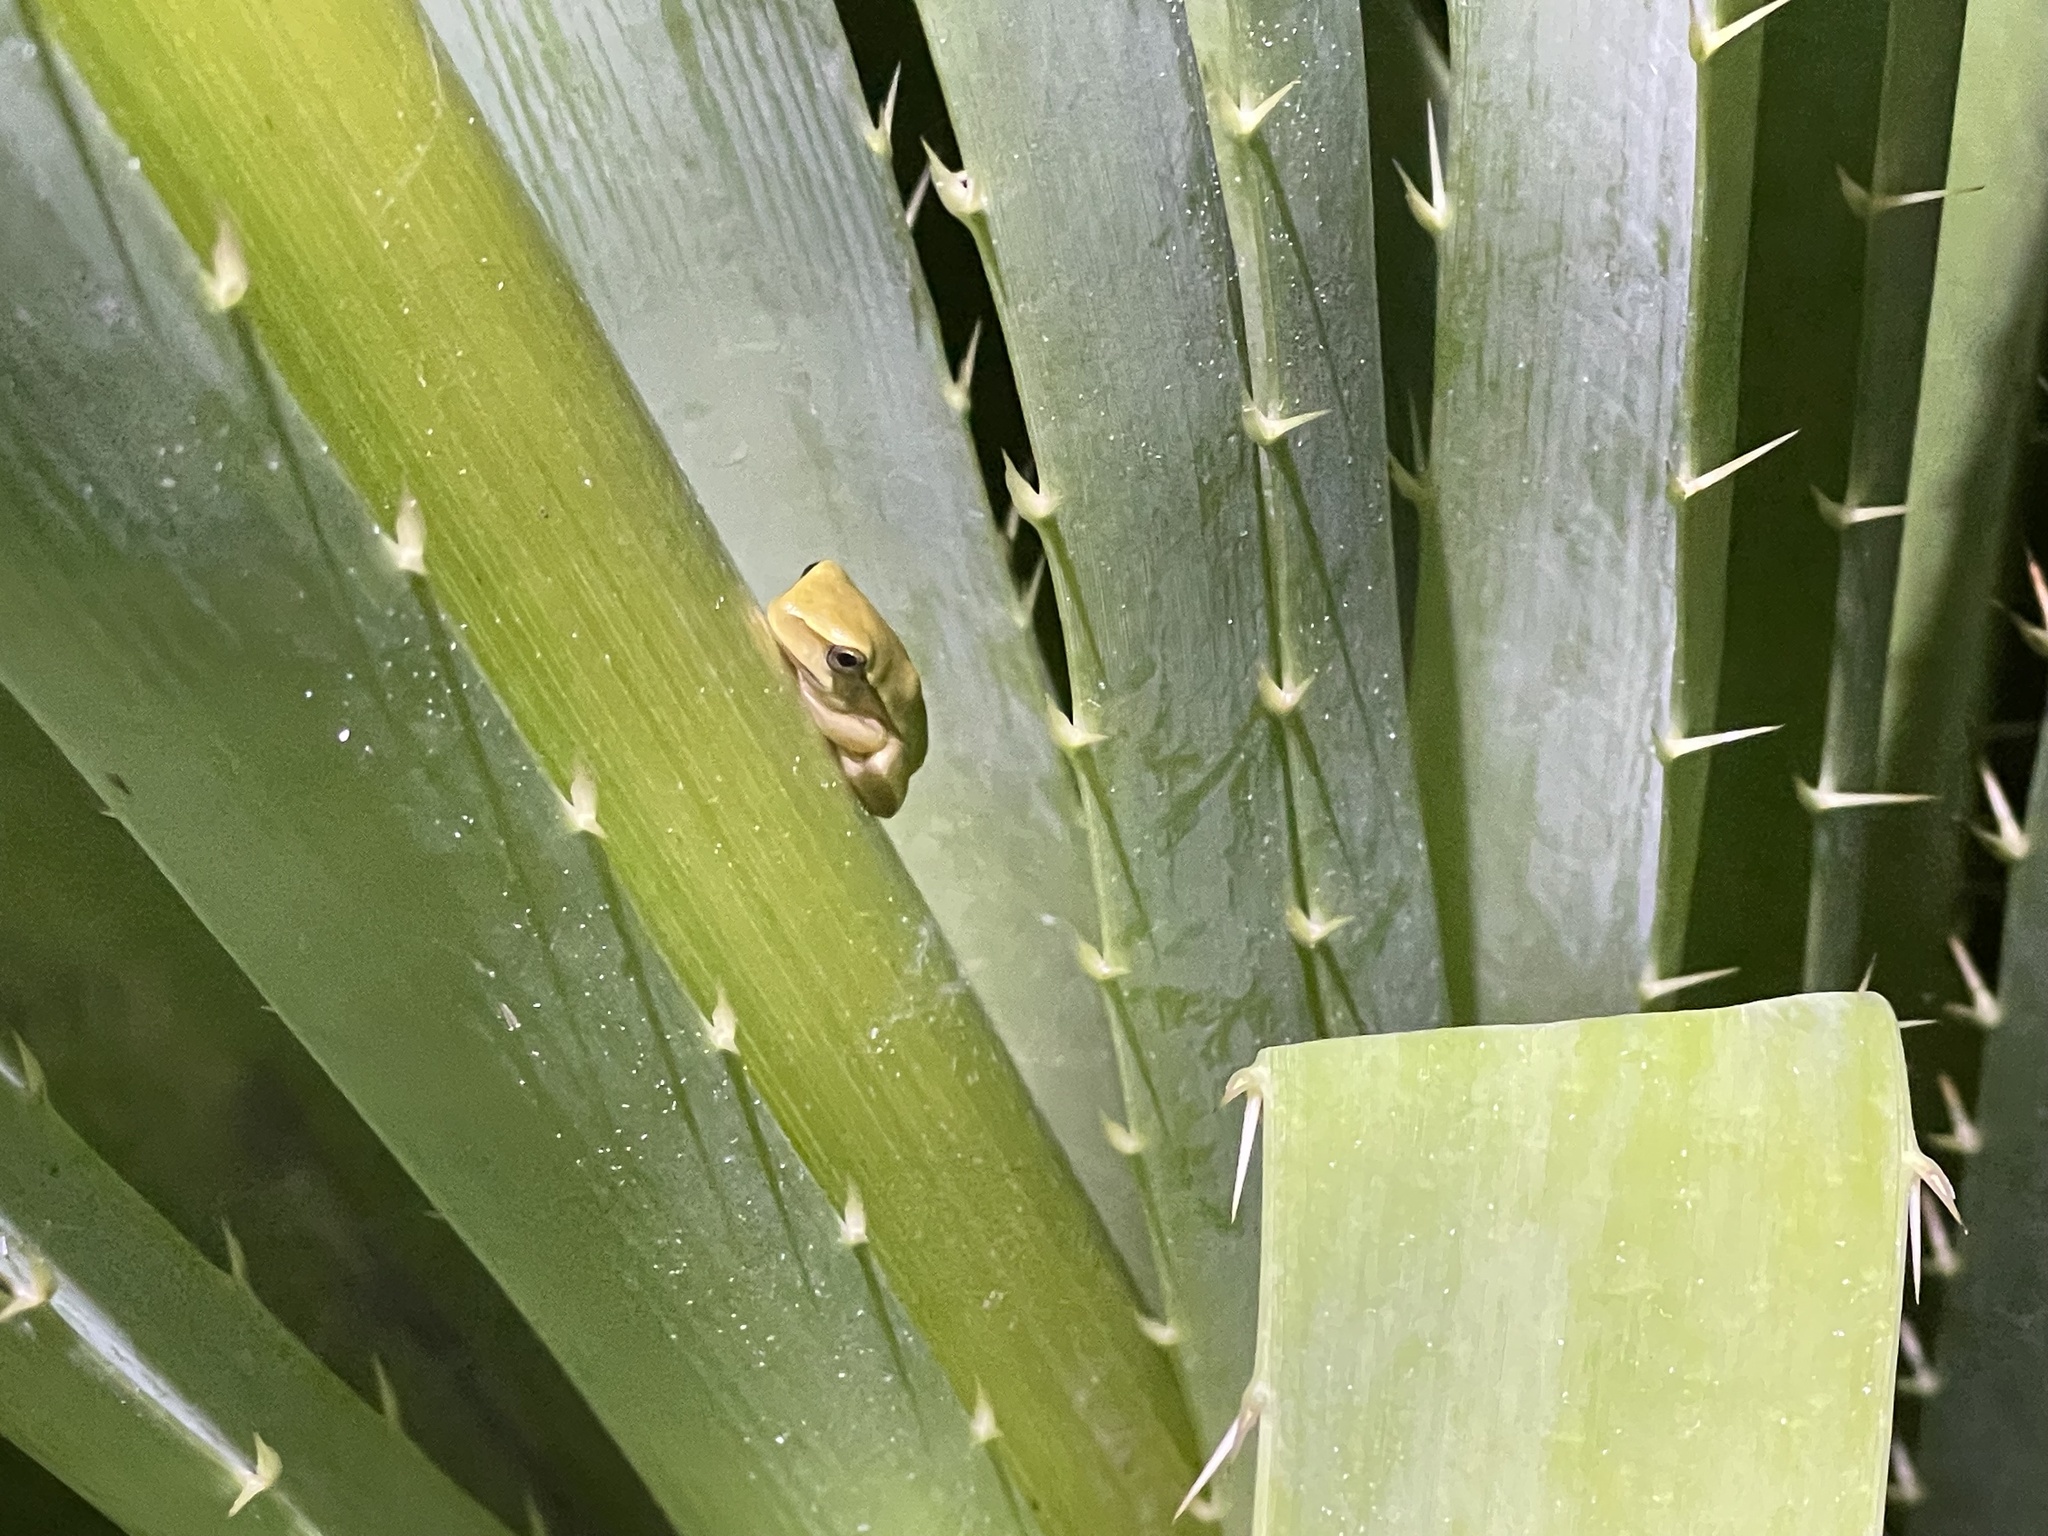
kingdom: Animalia
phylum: Chordata
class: Amphibia
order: Anura
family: Hylidae
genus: Boana
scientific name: Boana pulchella
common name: Montevideo treefrog
